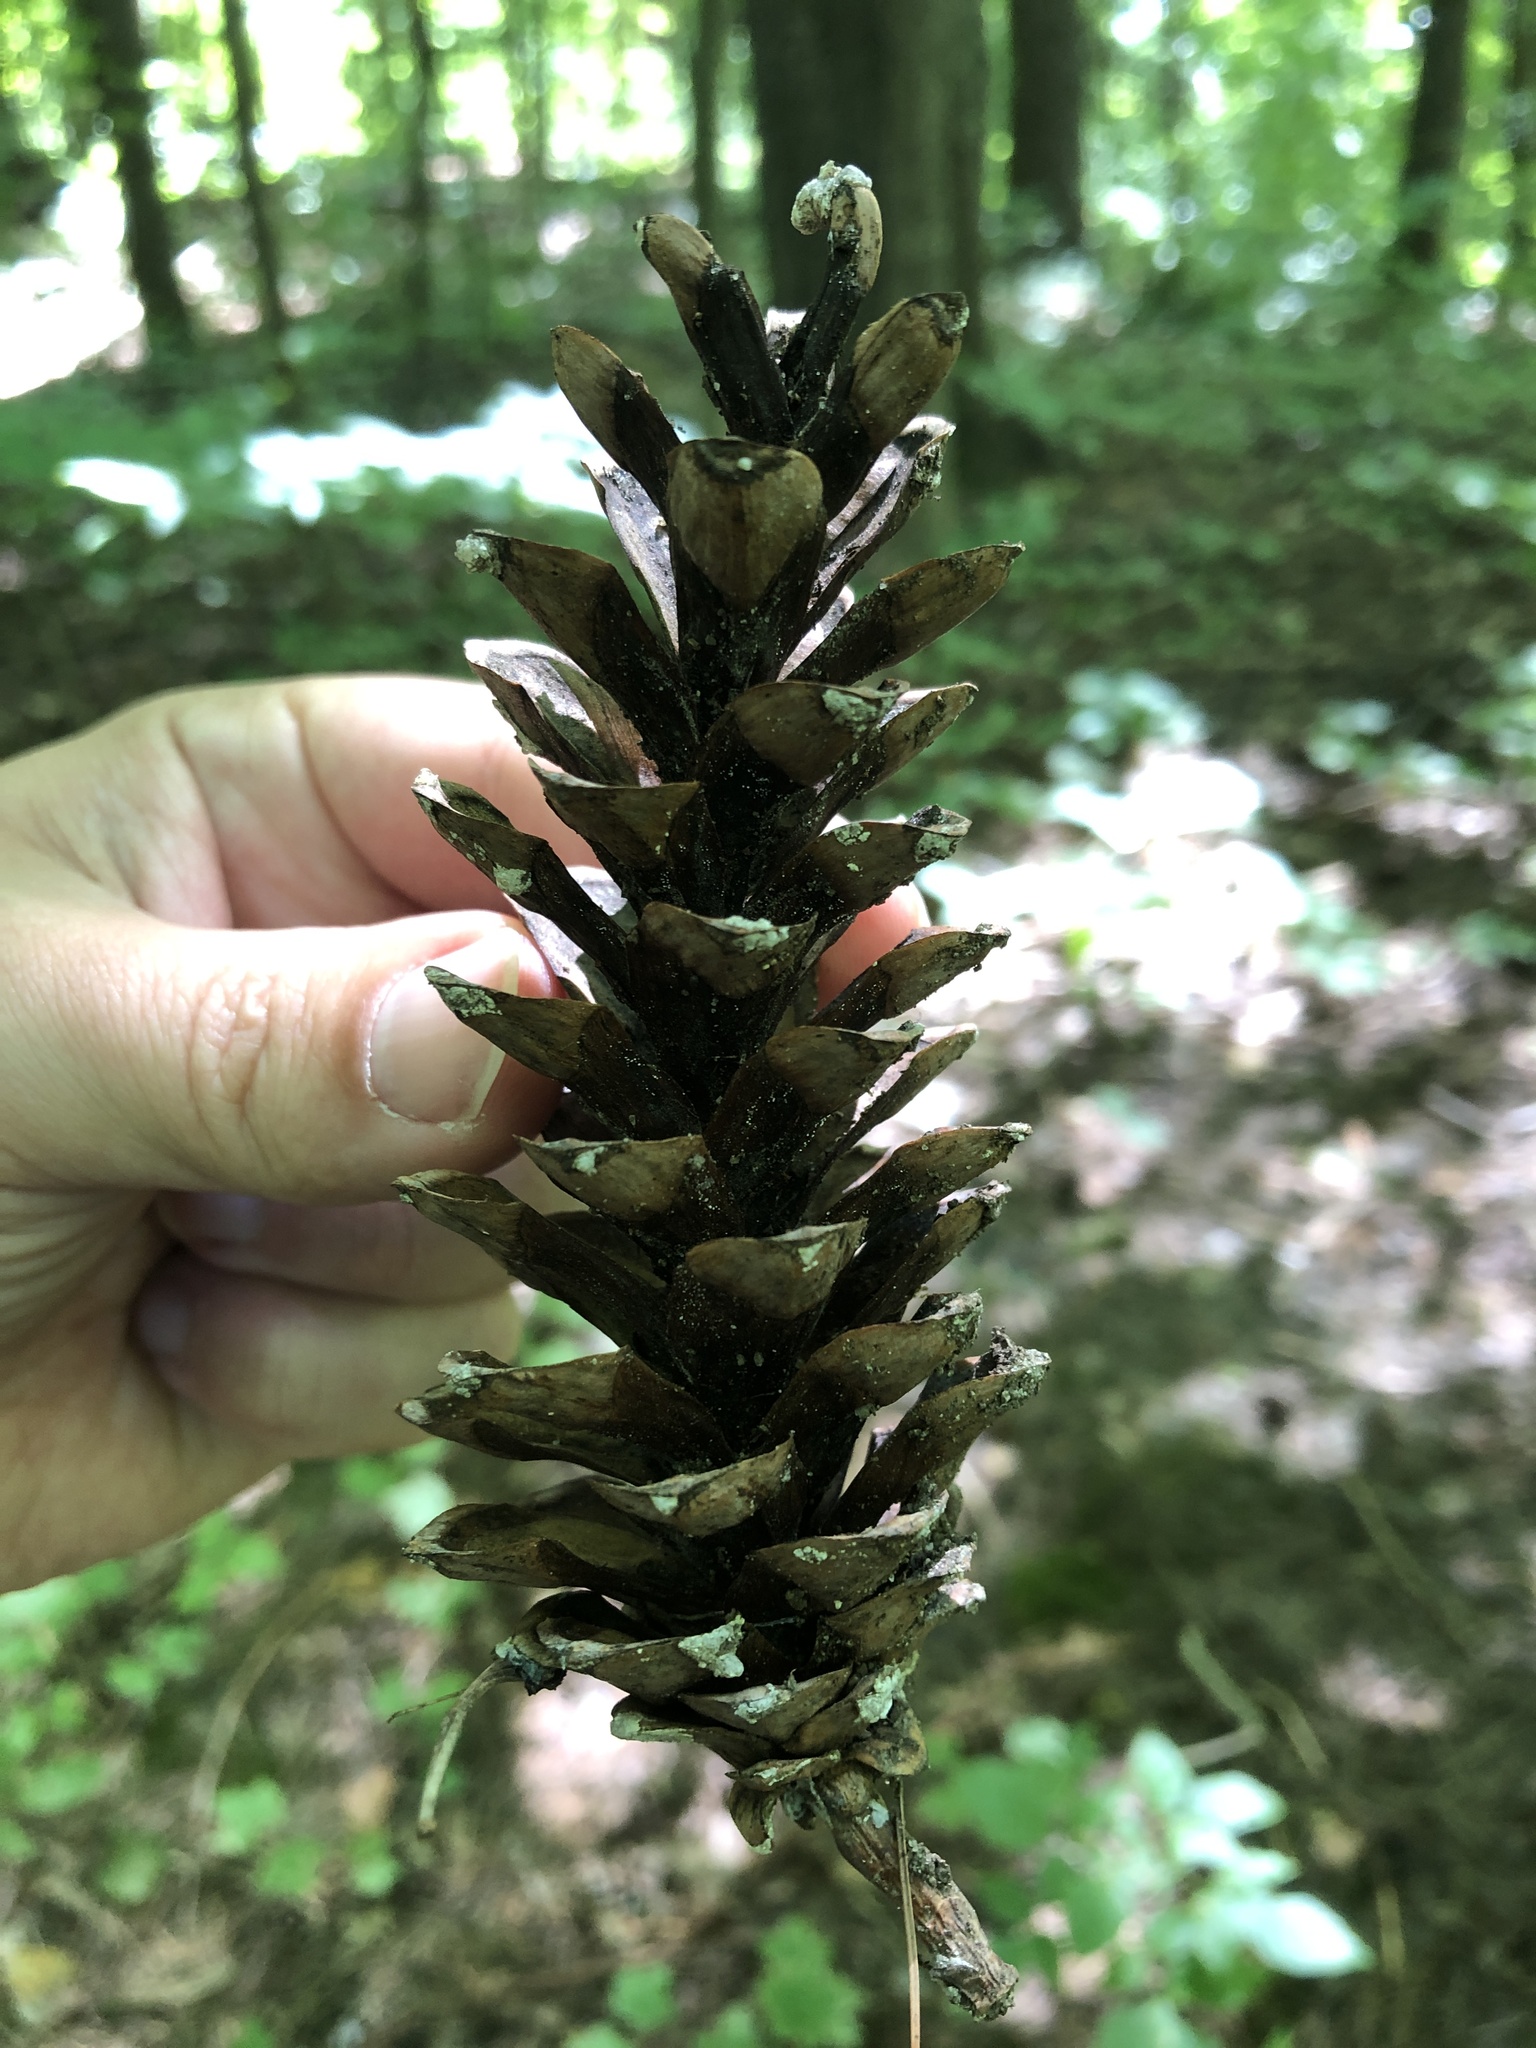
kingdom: Plantae
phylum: Tracheophyta
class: Pinopsida
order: Pinales
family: Pinaceae
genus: Pinus
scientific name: Pinus strobus
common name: Weymouth pine
